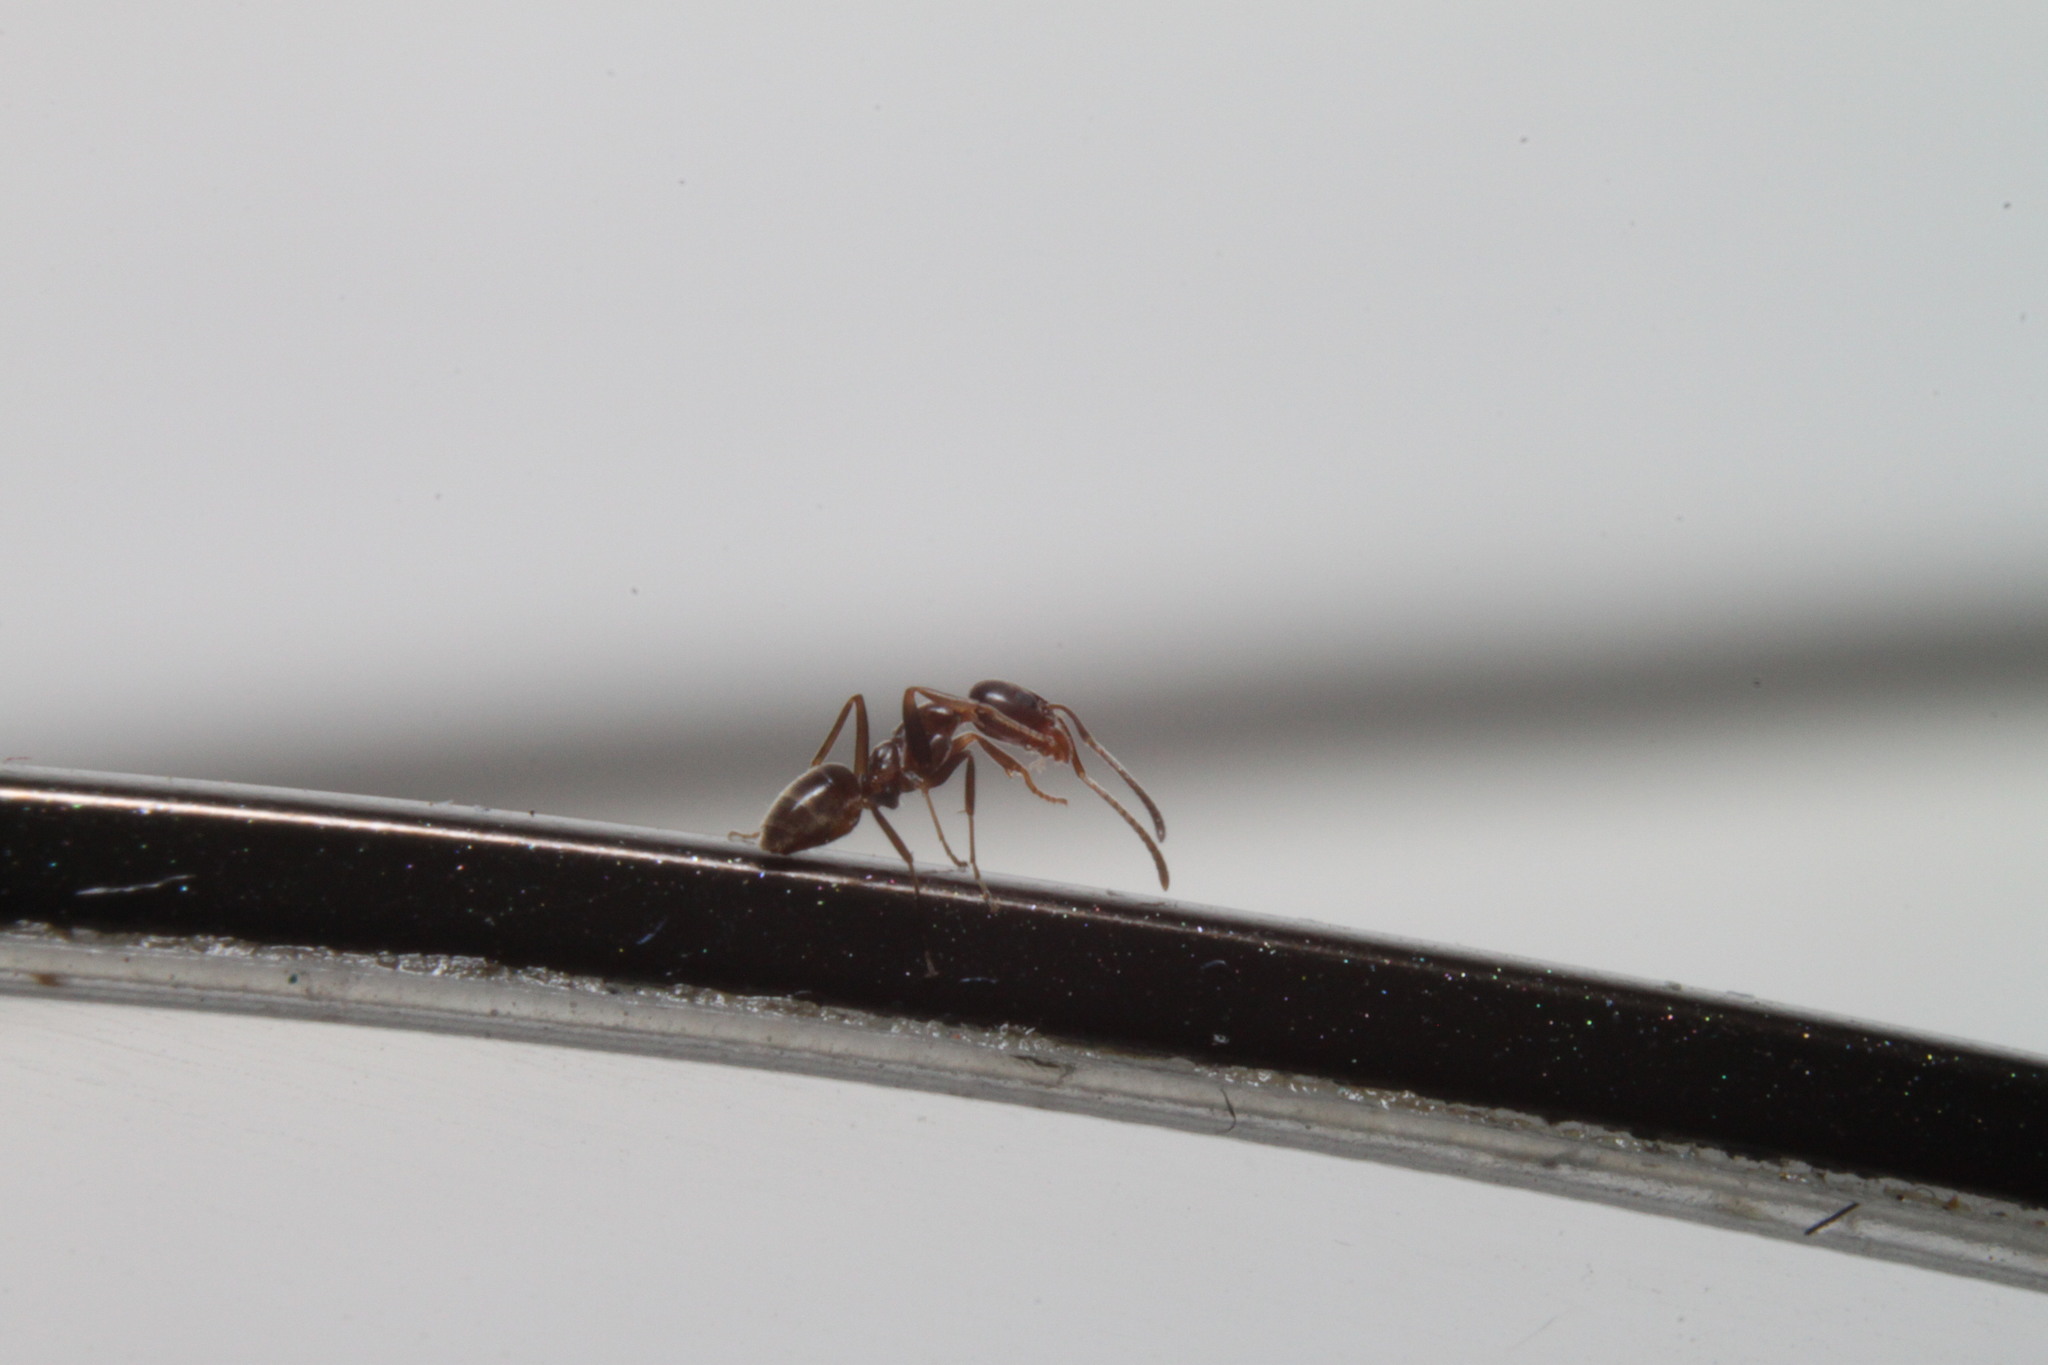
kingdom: Animalia
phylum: Arthropoda
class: Insecta
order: Hymenoptera
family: Formicidae
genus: Linepithema
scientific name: Linepithema humile
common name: Argentine ant
